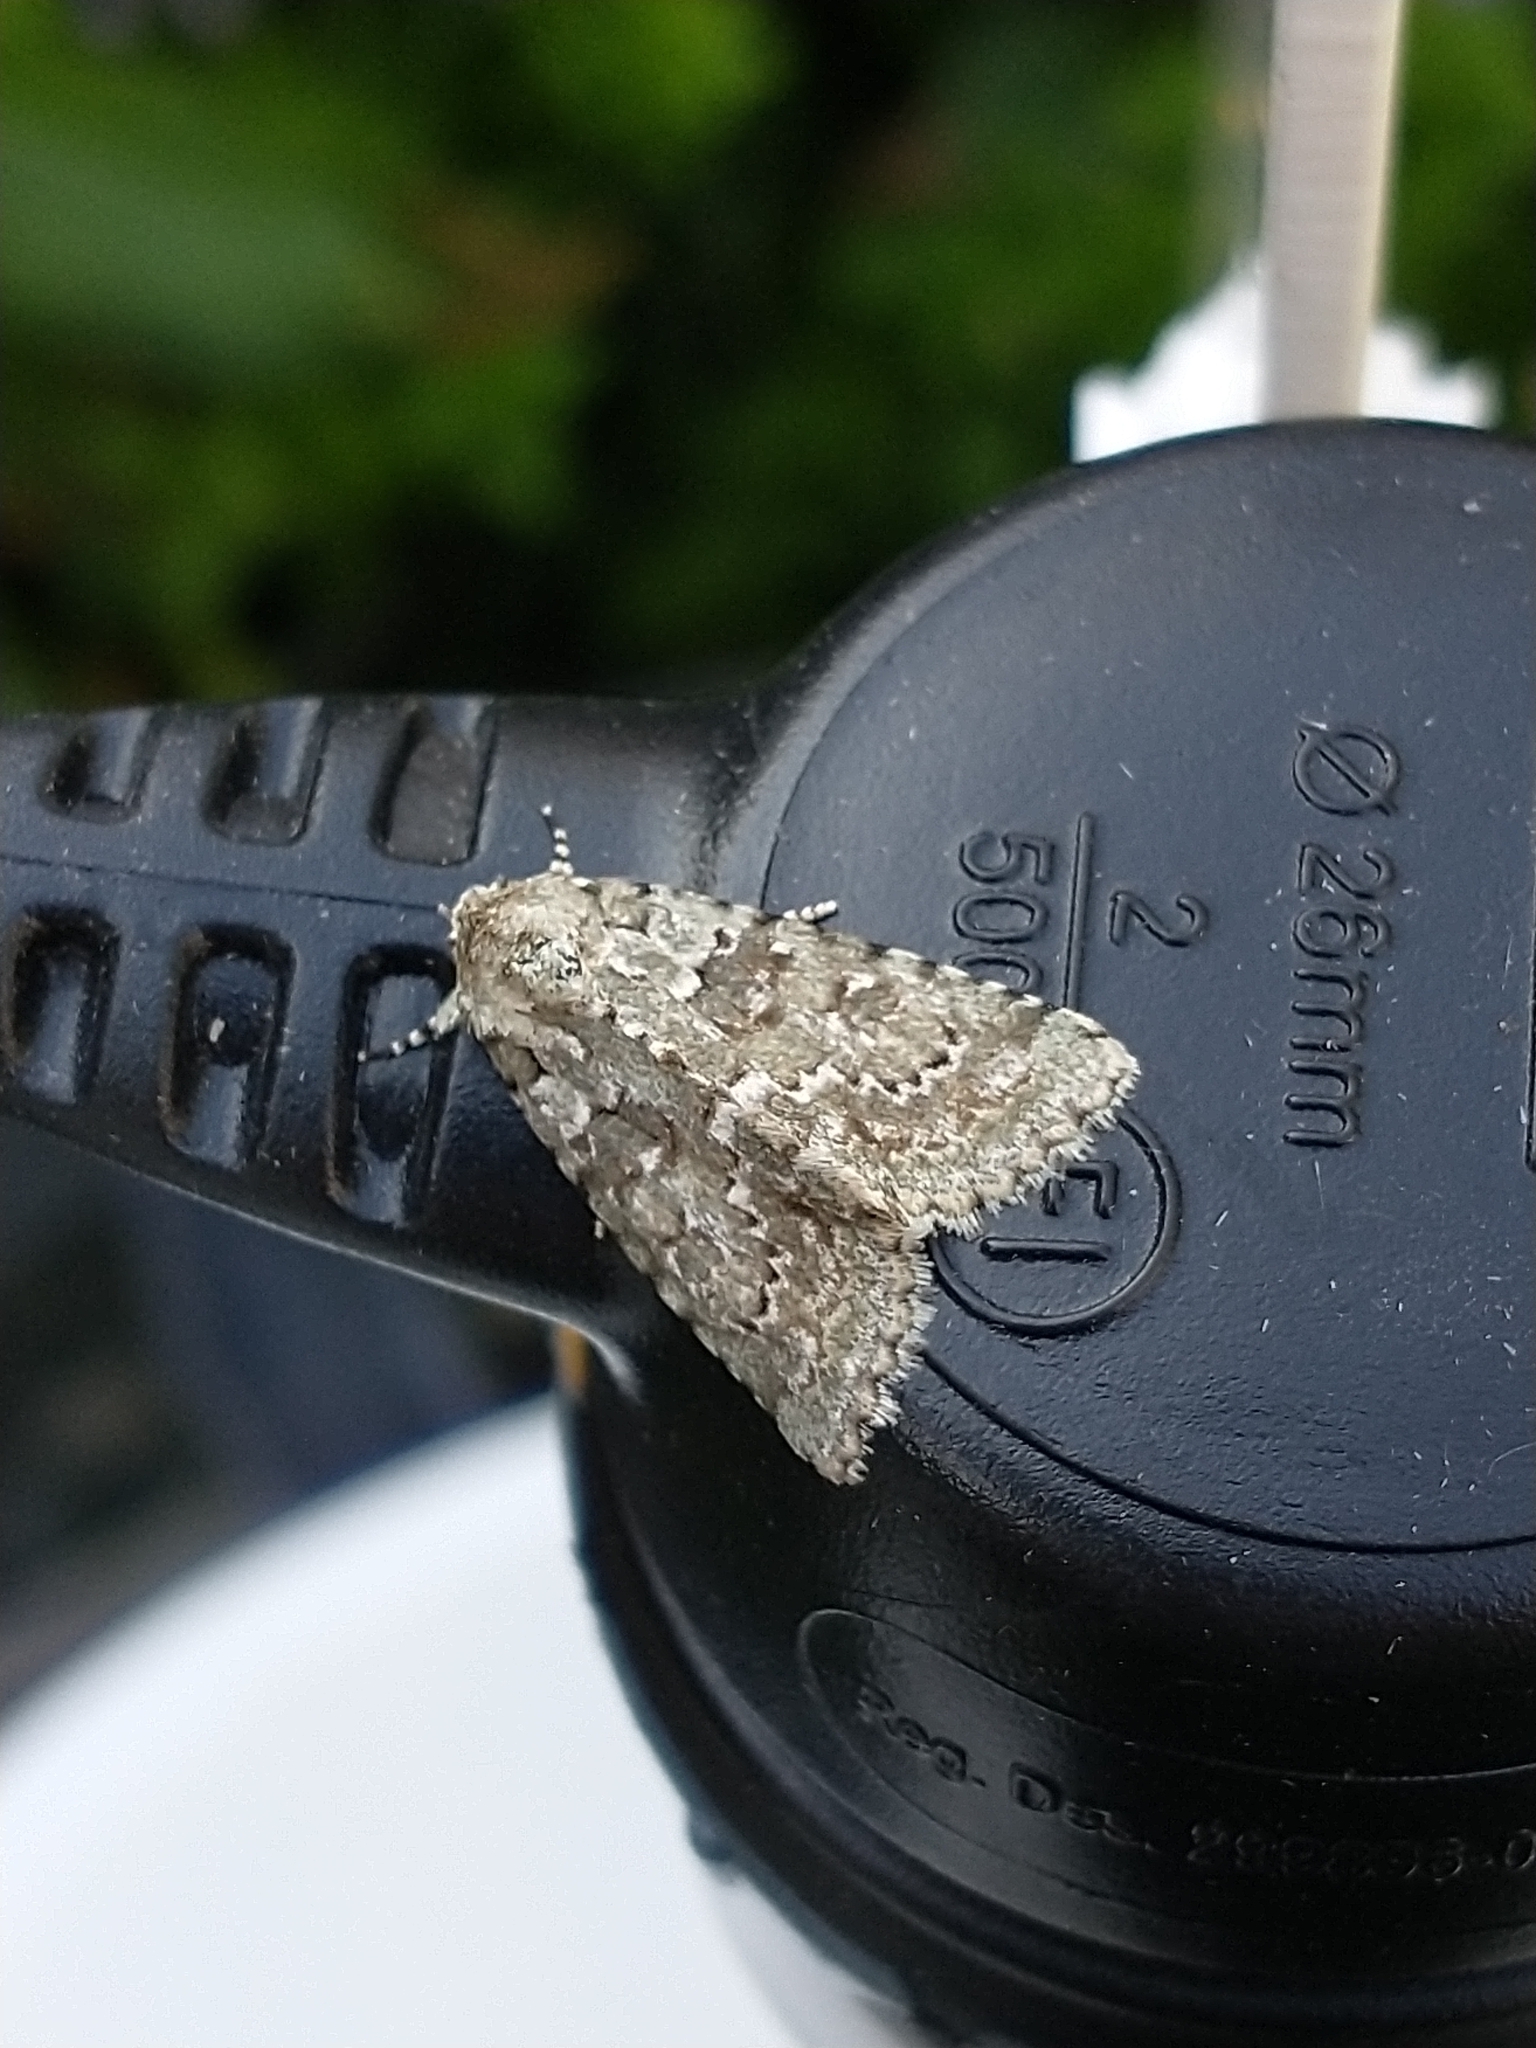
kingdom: Animalia
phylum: Arthropoda
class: Insecta
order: Lepidoptera
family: Noctuidae
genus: Nyctobrya
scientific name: Nyctobrya muralis
